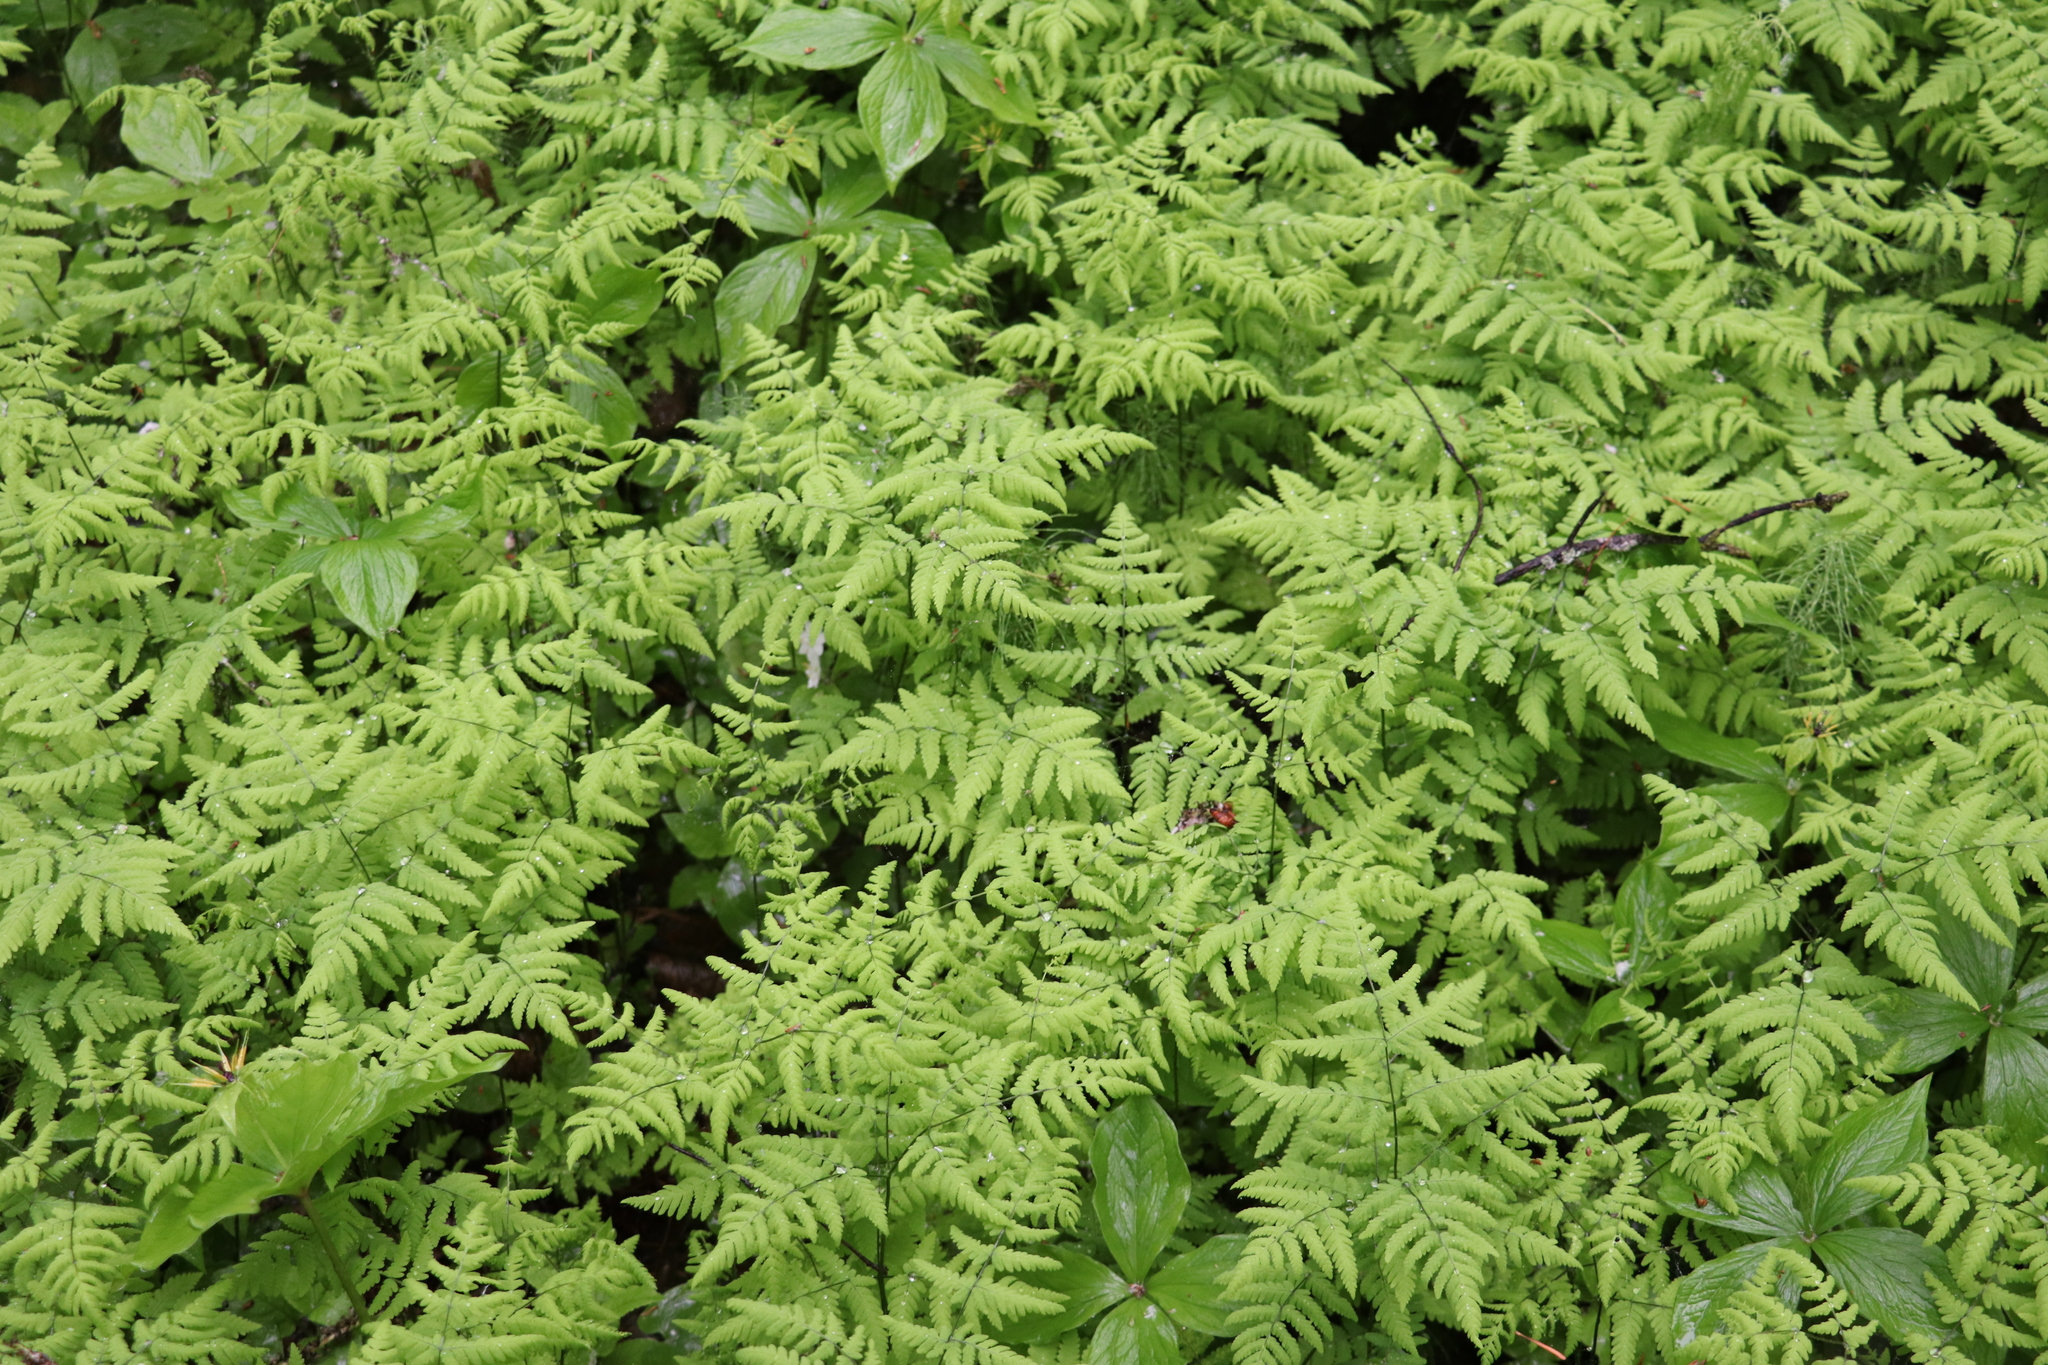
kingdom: Plantae
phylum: Tracheophyta
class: Polypodiopsida
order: Polypodiales
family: Cystopteridaceae
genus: Gymnocarpium
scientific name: Gymnocarpium dryopteris
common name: Oak fern
